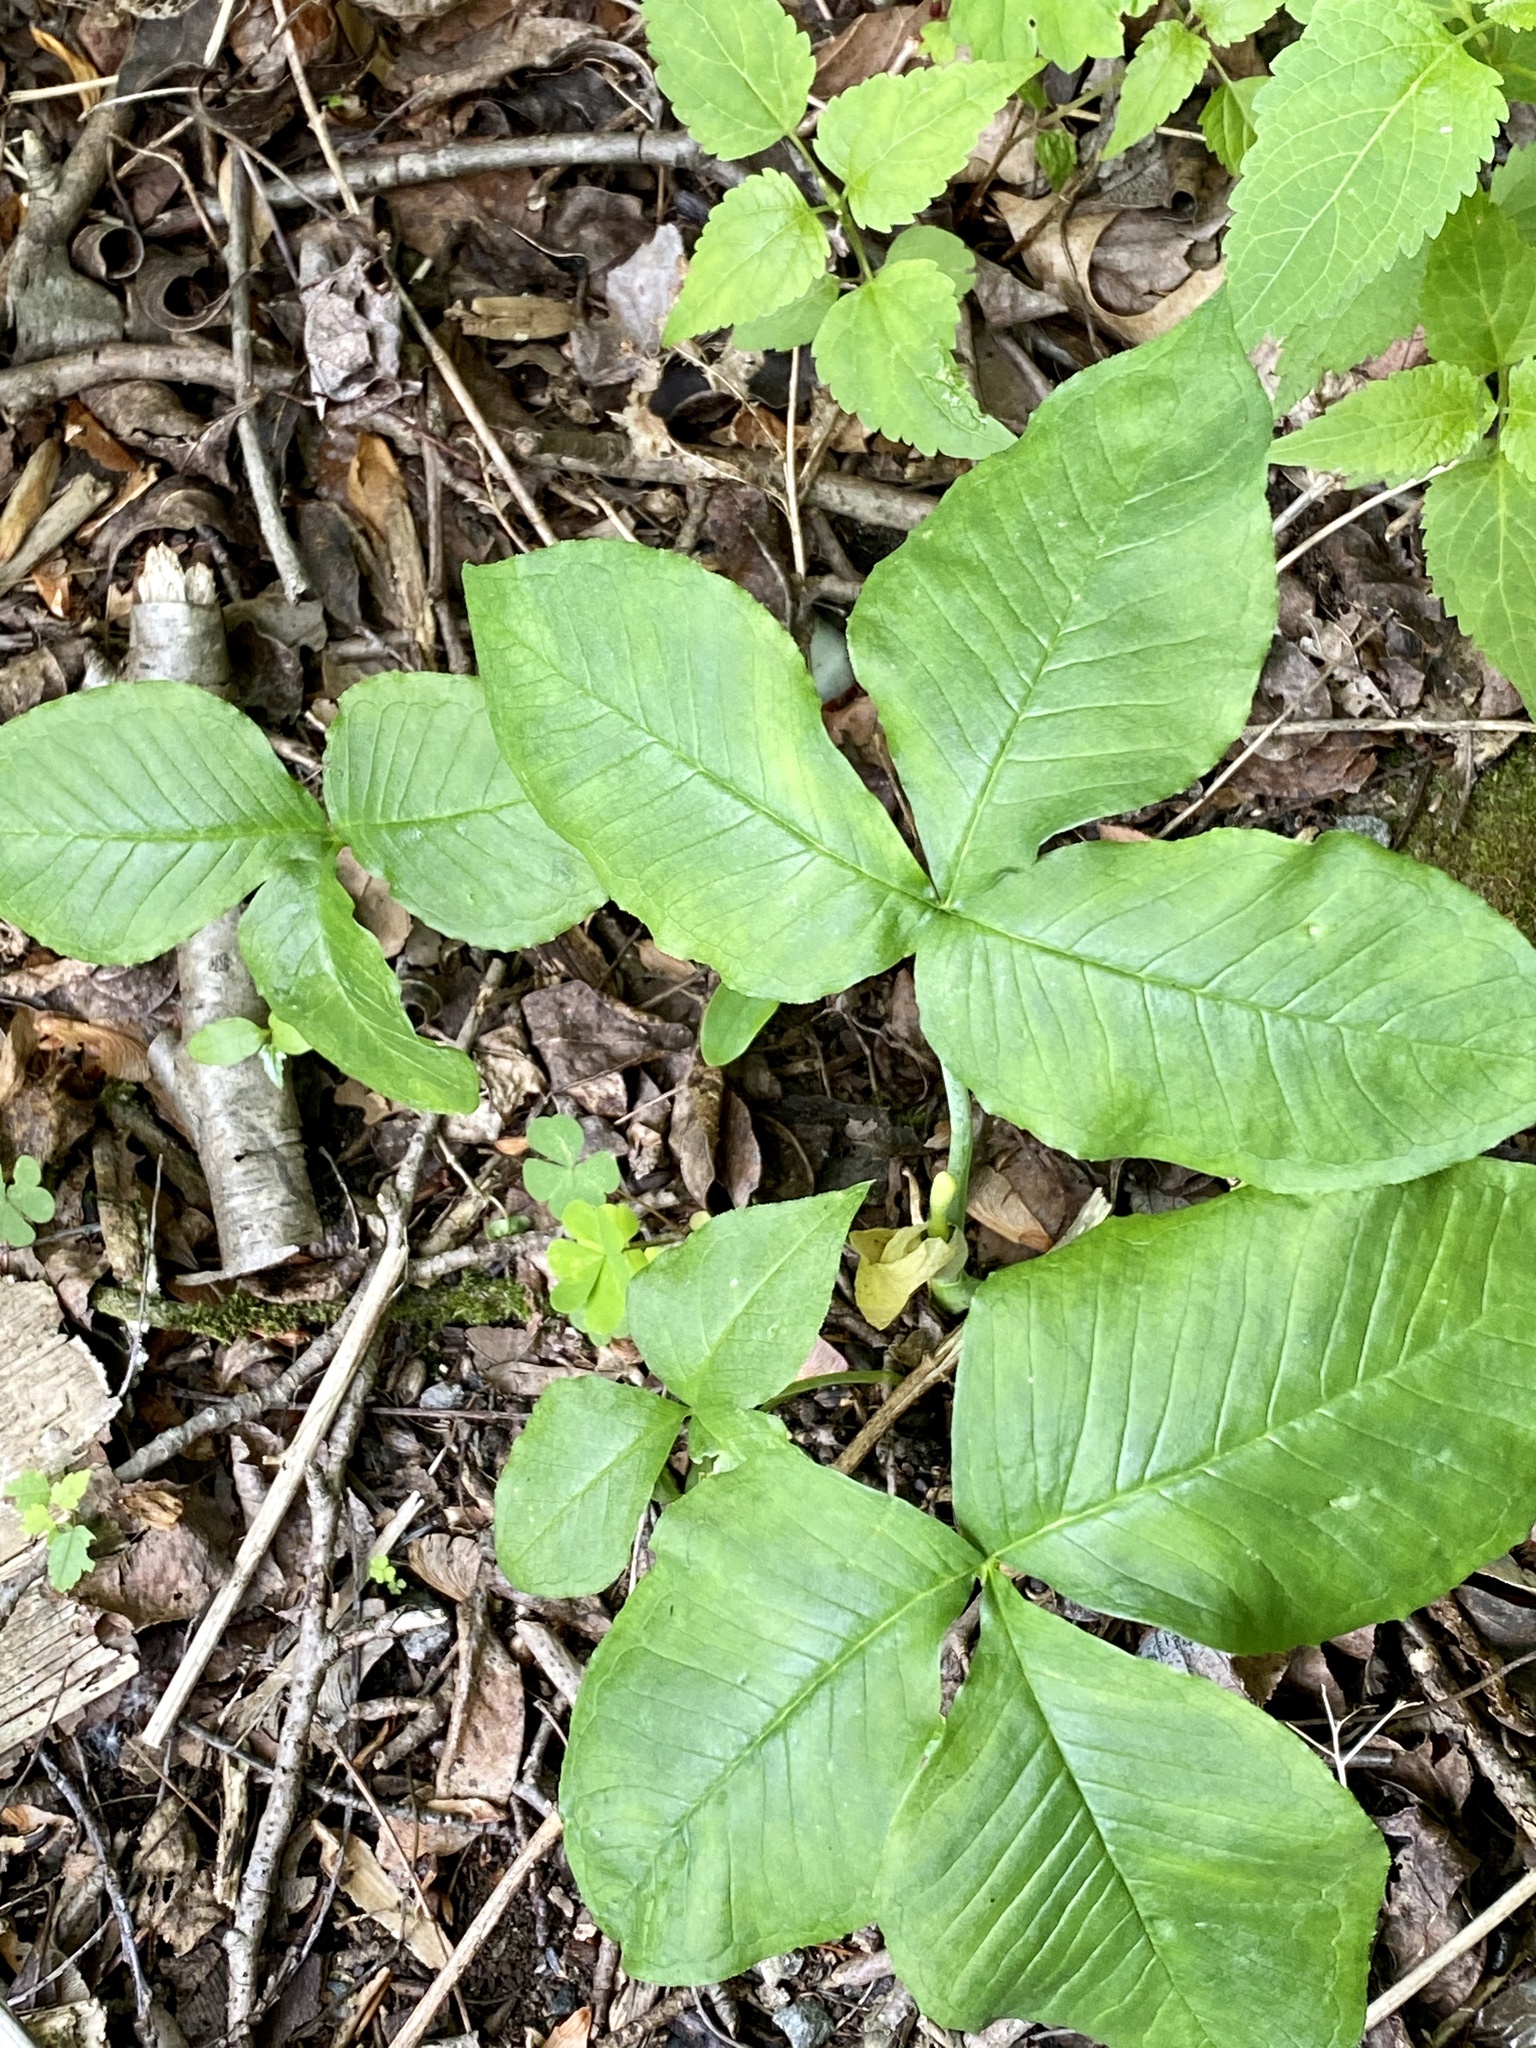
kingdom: Plantae
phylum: Tracheophyta
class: Liliopsida
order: Alismatales
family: Araceae
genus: Arisaema
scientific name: Arisaema triphyllum
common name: Jack-in-the-pulpit
